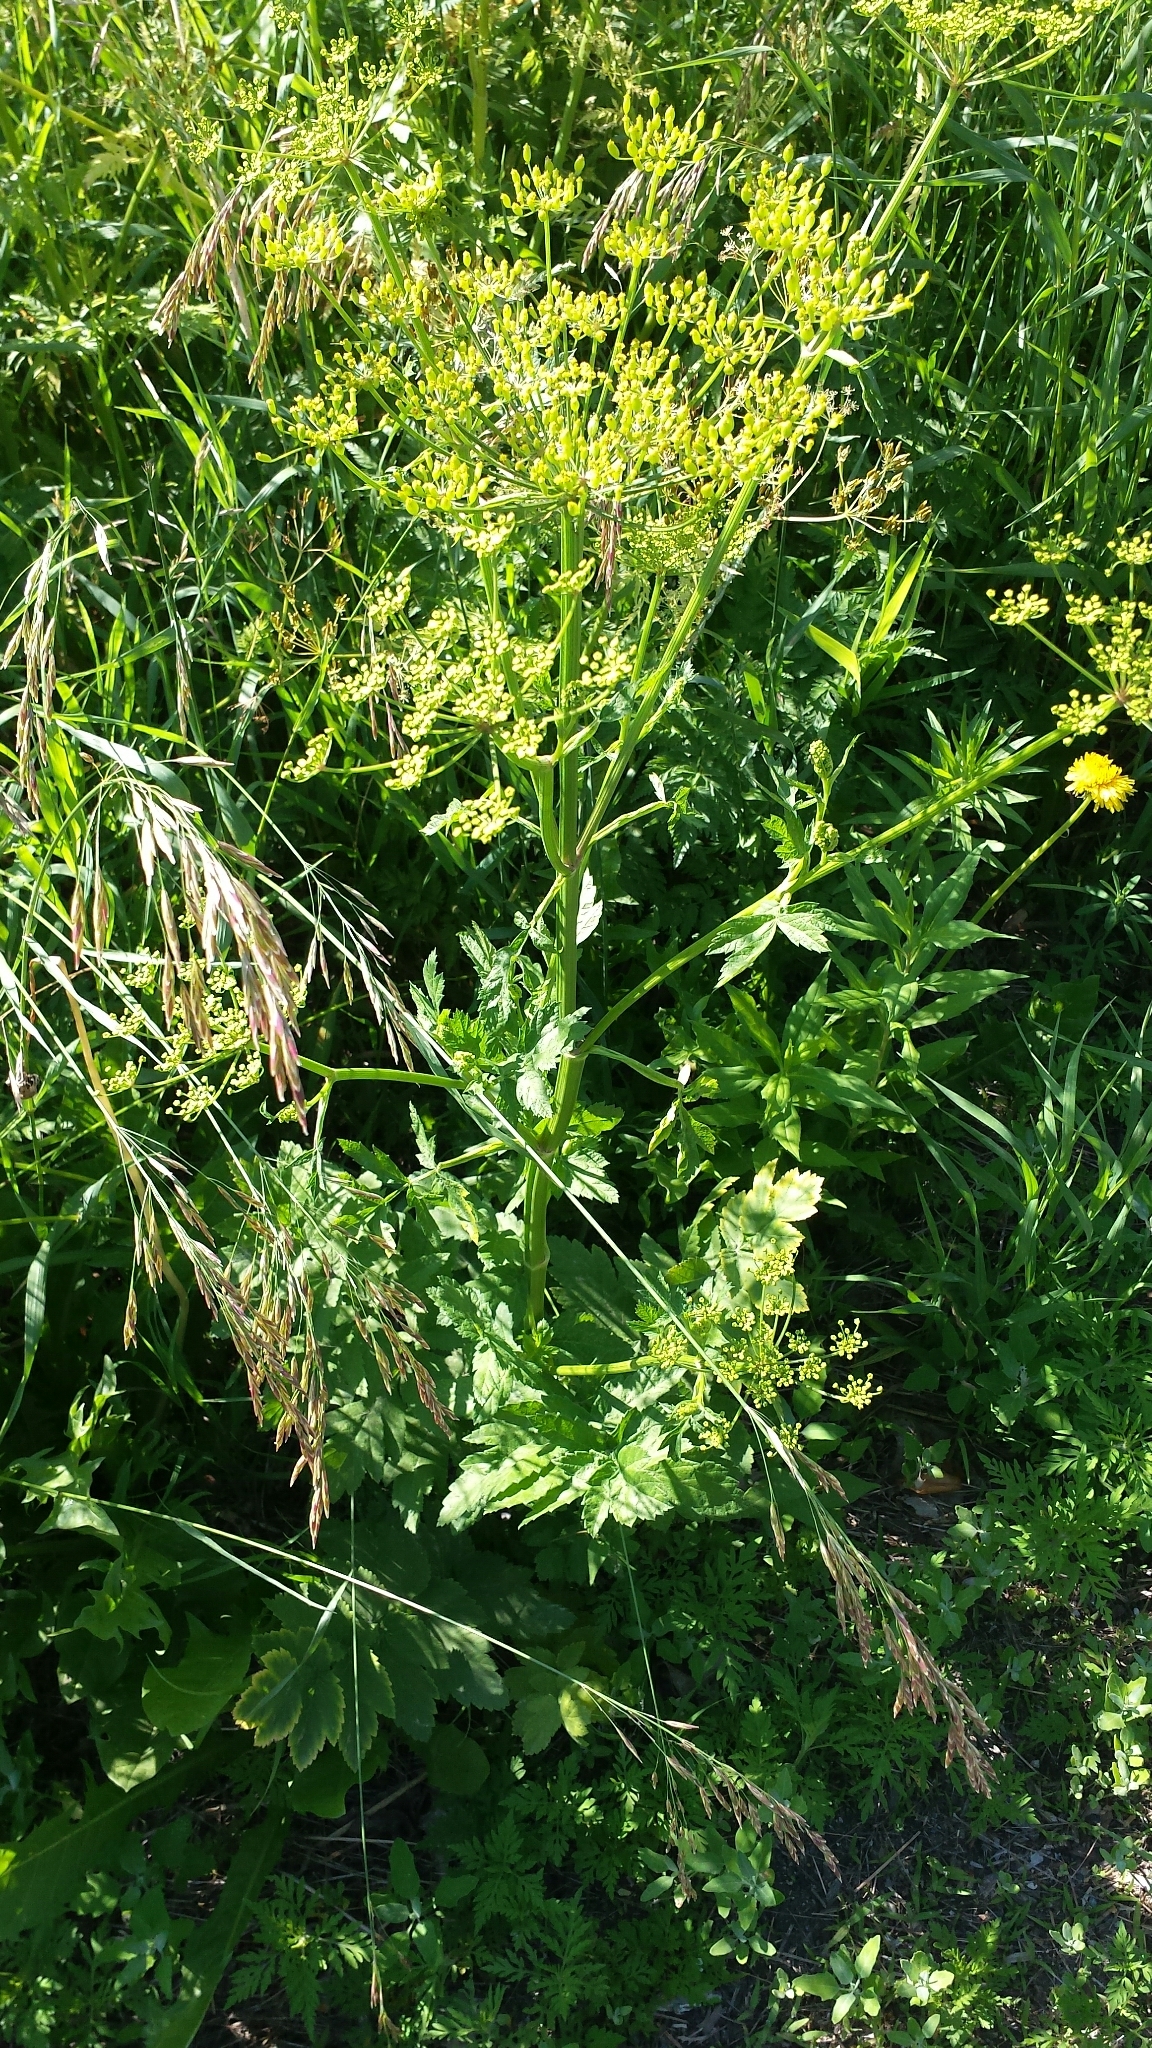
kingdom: Plantae
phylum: Tracheophyta
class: Magnoliopsida
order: Apiales
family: Apiaceae
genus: Pastinaca
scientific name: Pastinaca sativa
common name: Wild parsnip
